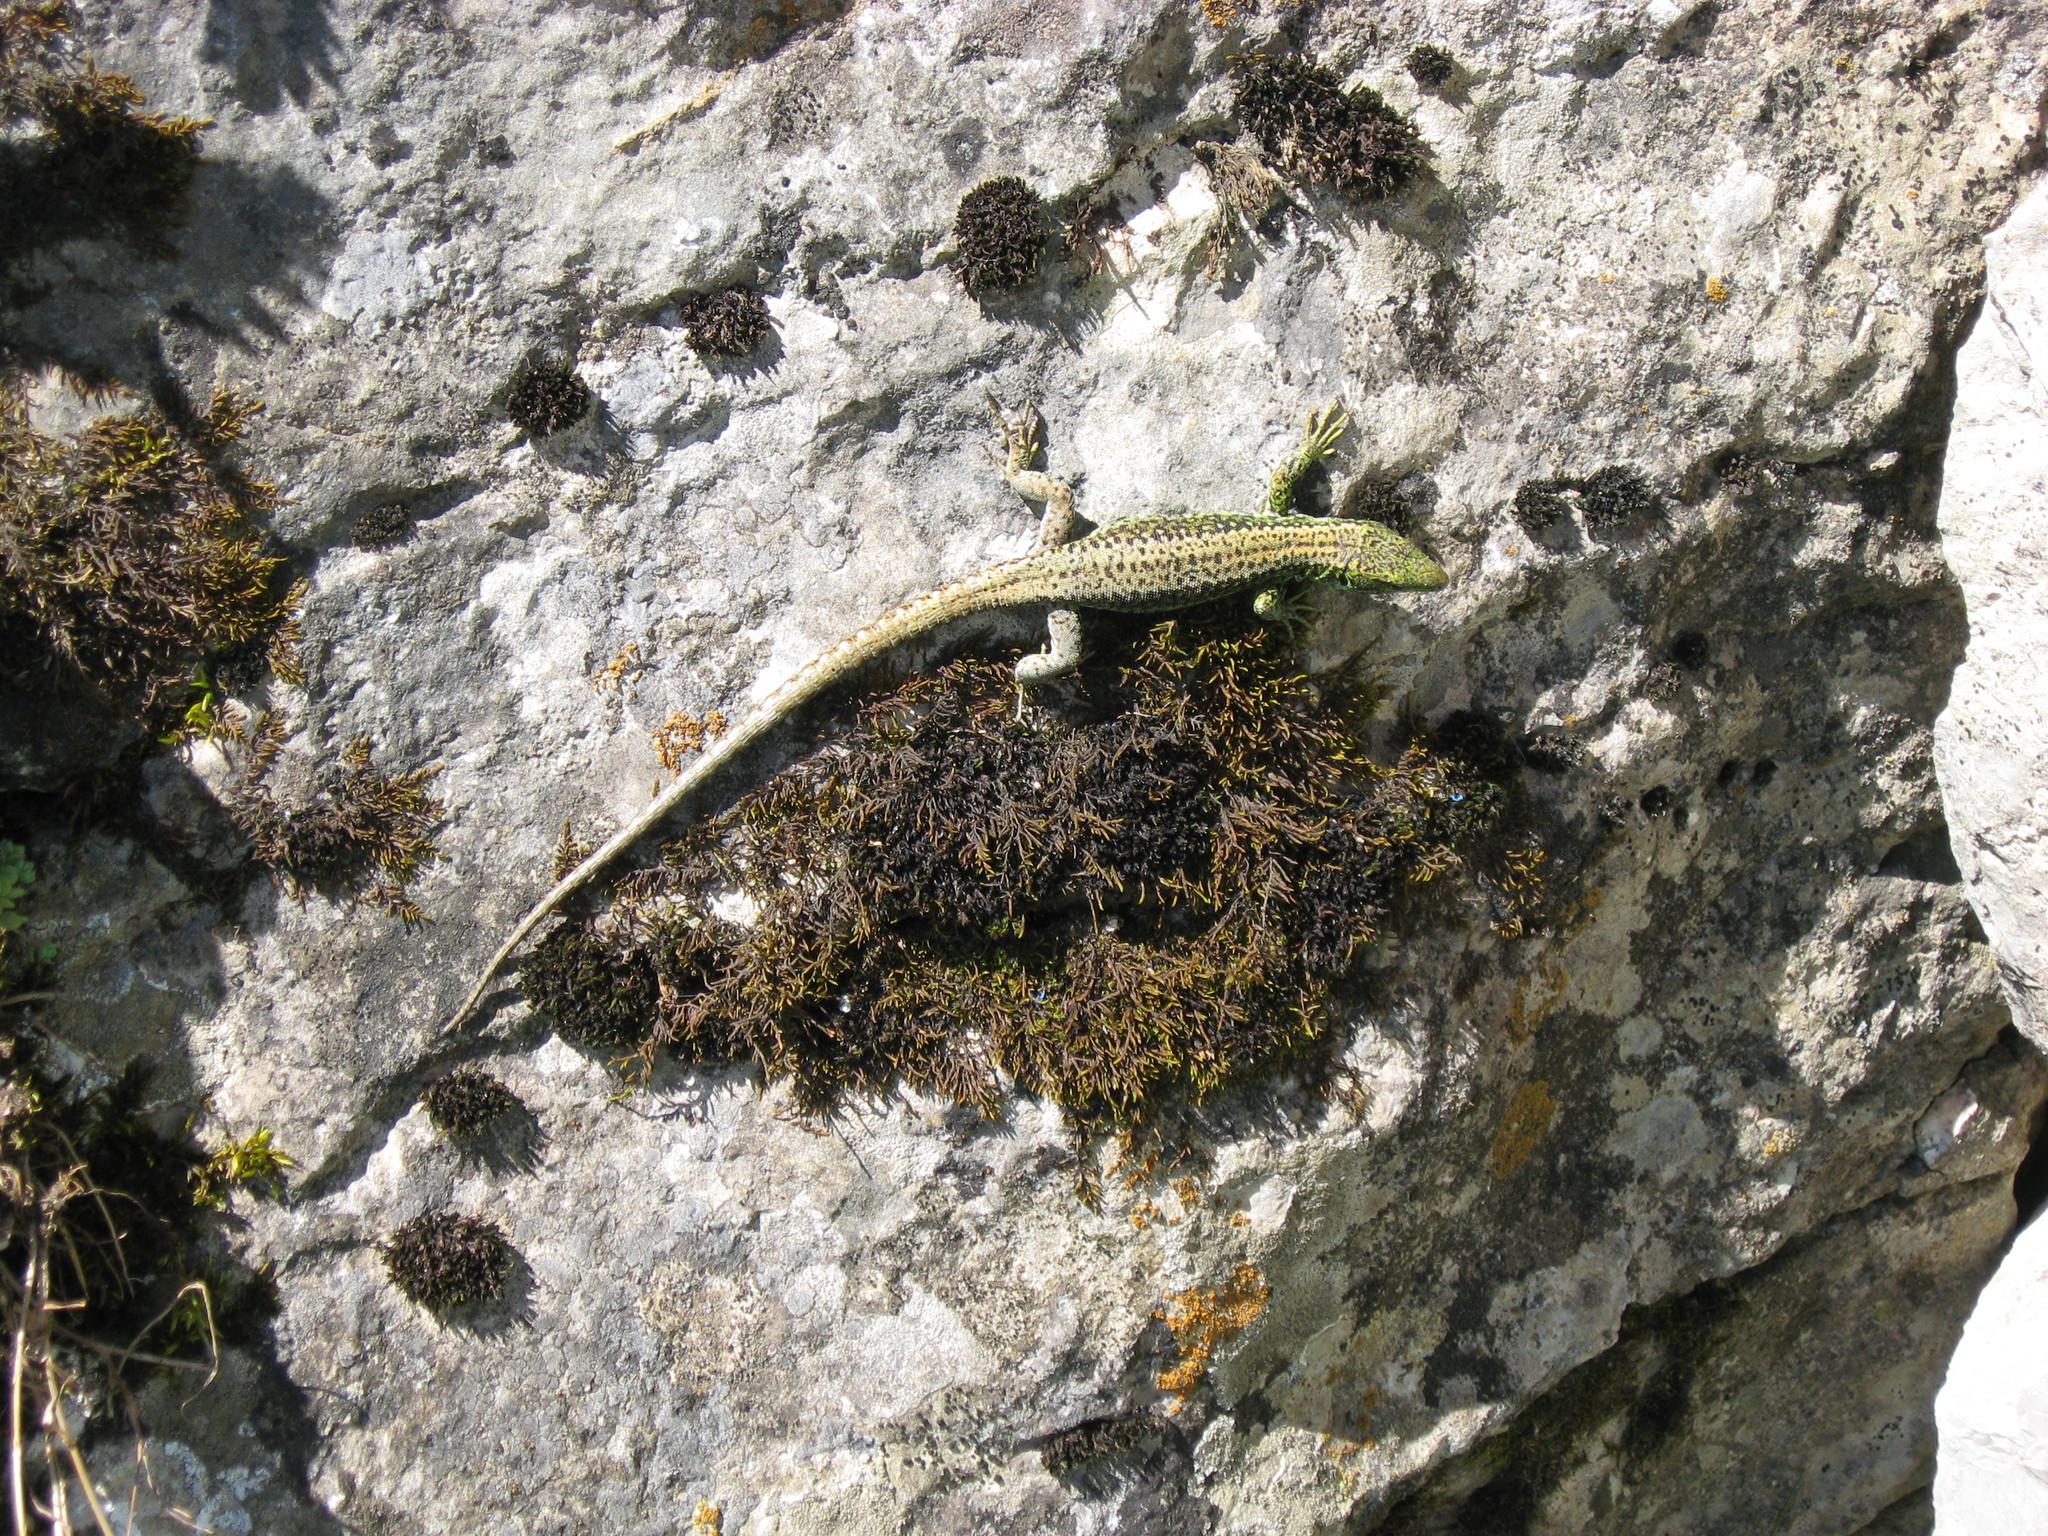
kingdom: Animalia
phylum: Chordata
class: Squamata
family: Lacertidae
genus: Iberolacerta
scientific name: Iberolacerta monticola
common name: Iberian mountain lizard
